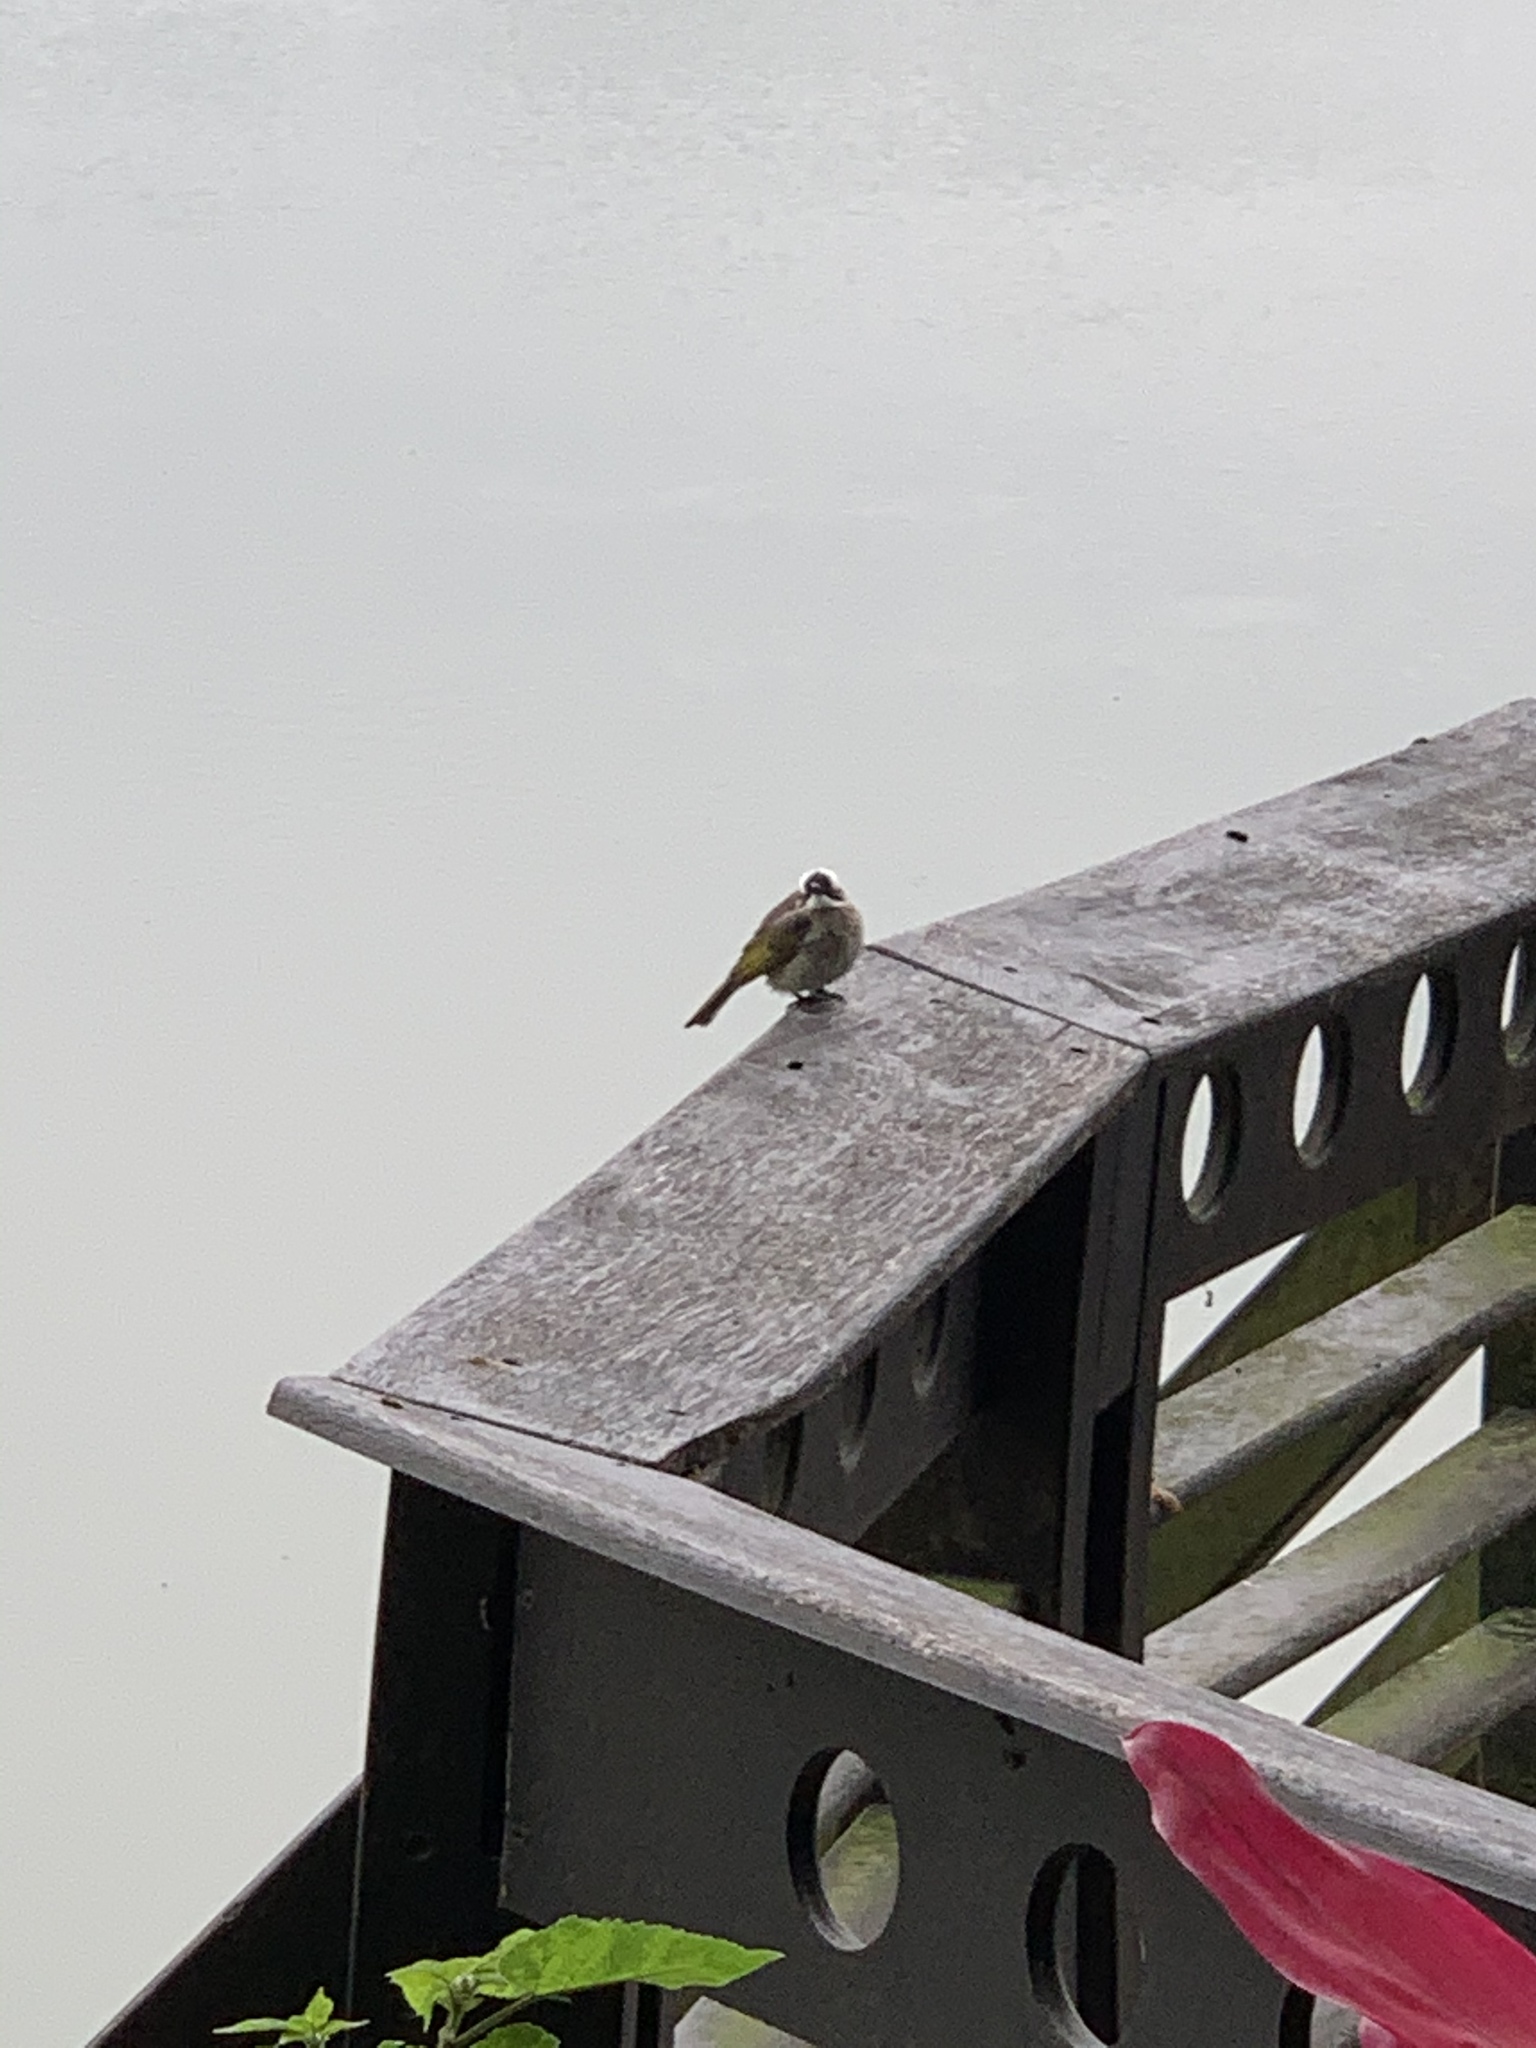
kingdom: Animalia
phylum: Chordata
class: Aves
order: Passeriformes
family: Pycnonotidae
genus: Pycnonotus
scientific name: Pycnonotus sinensis
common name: Light-vented bulbul
